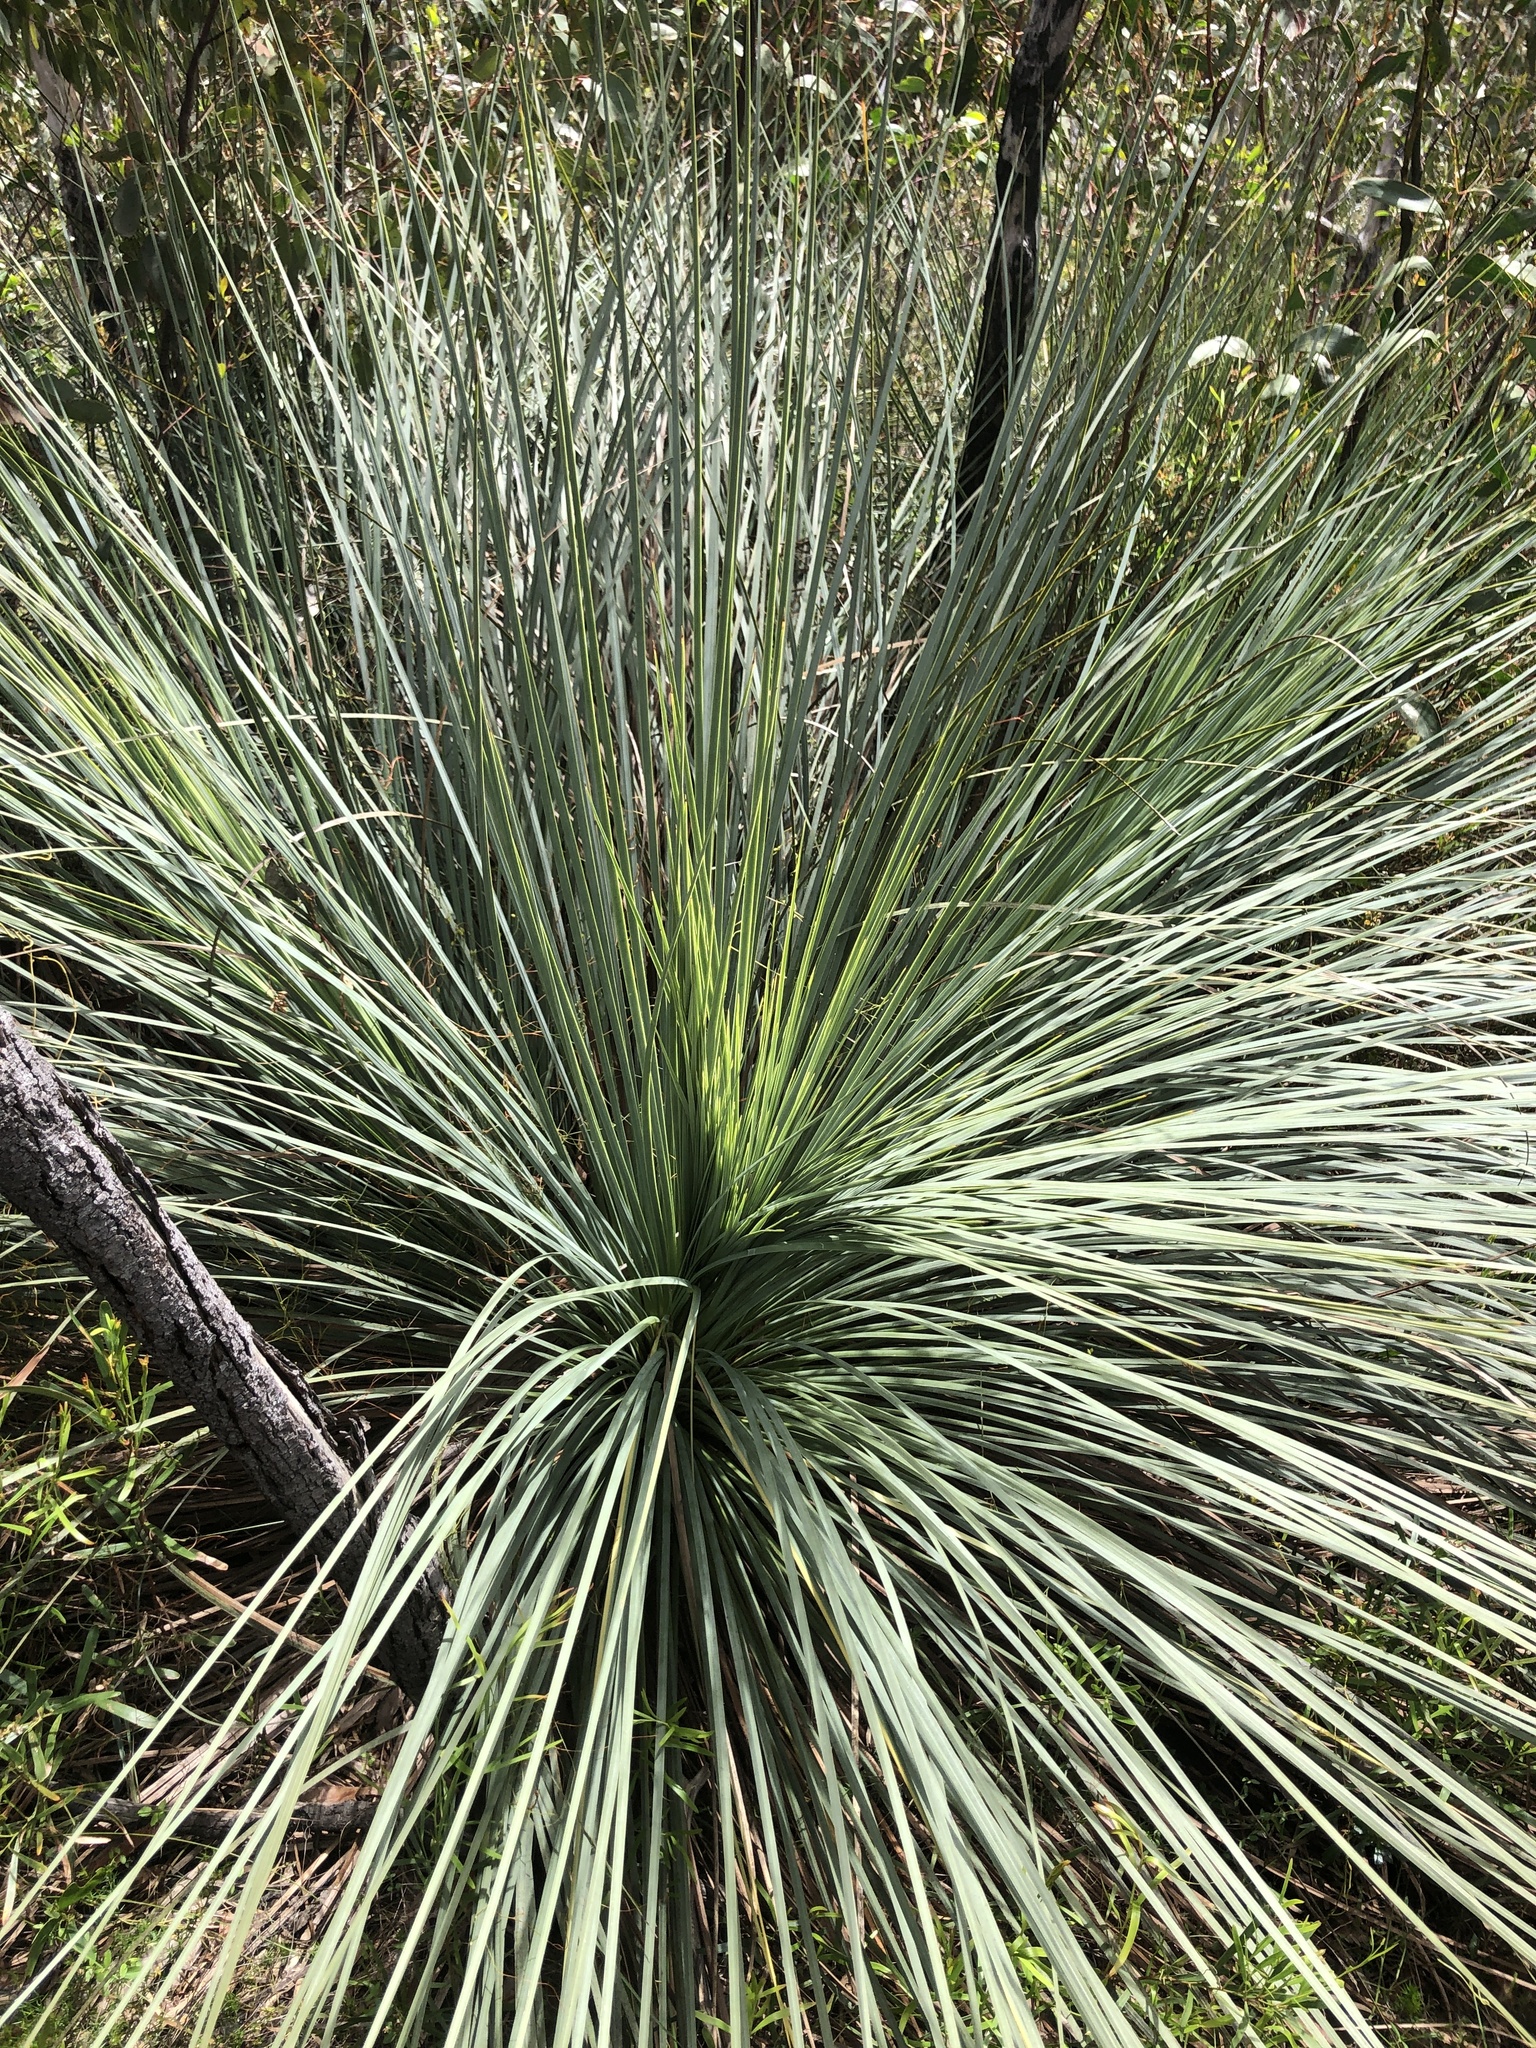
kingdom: Plantae
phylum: Tracheophyta
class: Liliopsida
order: Asparagales
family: Asphodelaceae
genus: Xanthorrhoea
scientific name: Xanthorrhoea semiplana
